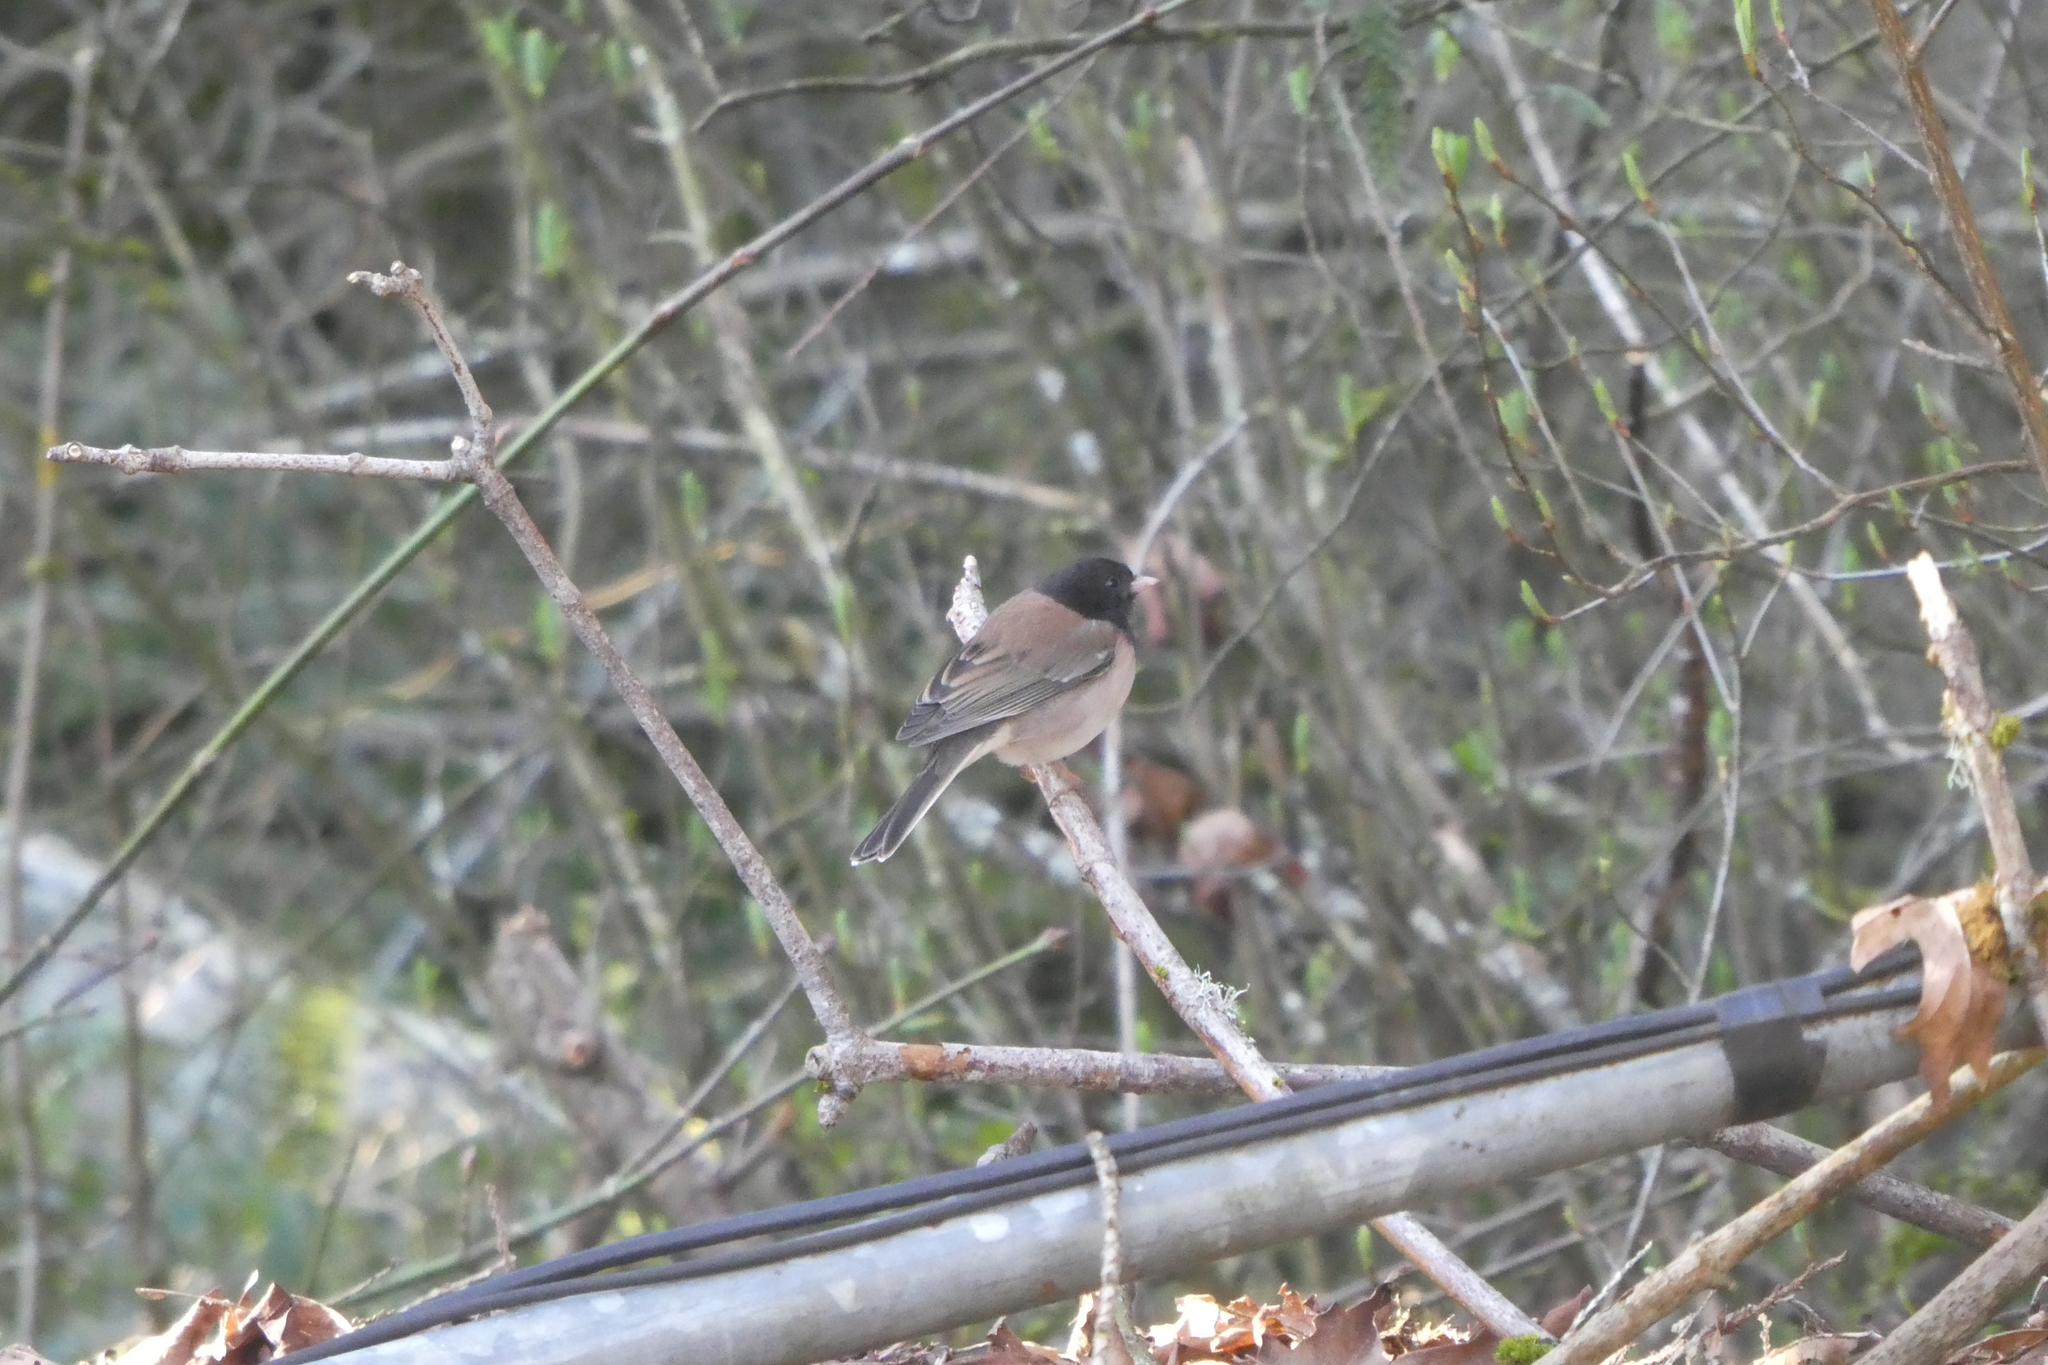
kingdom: Animalia
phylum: Chordata
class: Aves
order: Passeriformes
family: Passerellidae
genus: Junco
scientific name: Junco hyemalis
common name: Dark-eyed junco
